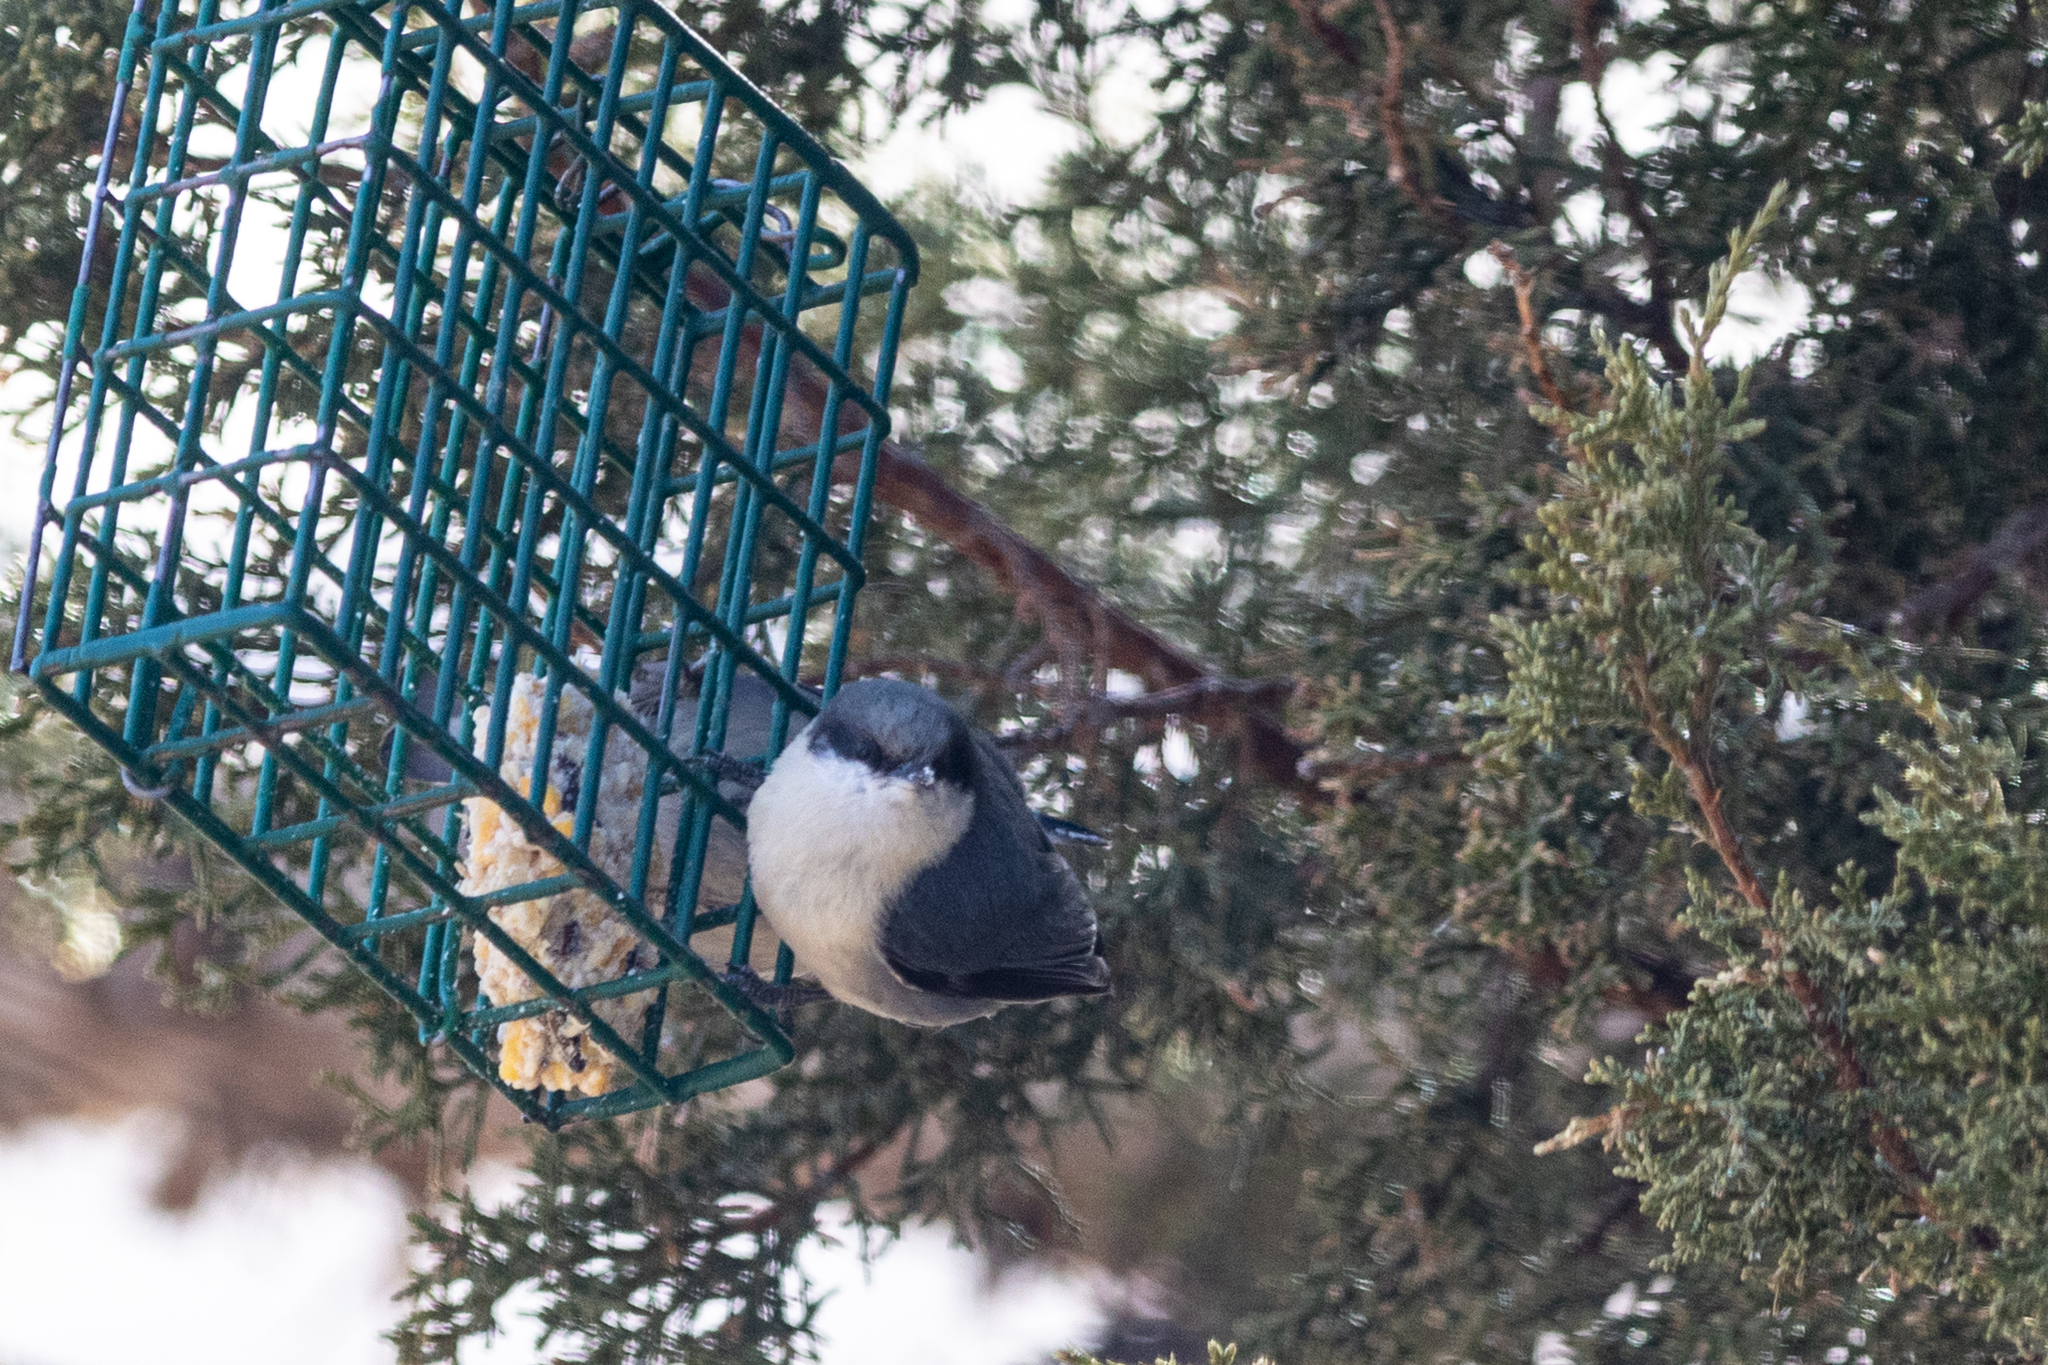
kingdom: Animalia
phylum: Chordata
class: Aves
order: Passeriformes
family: Sittidae
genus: Sitta
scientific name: Sitta pygmaea
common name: Pygmy nuthatch
